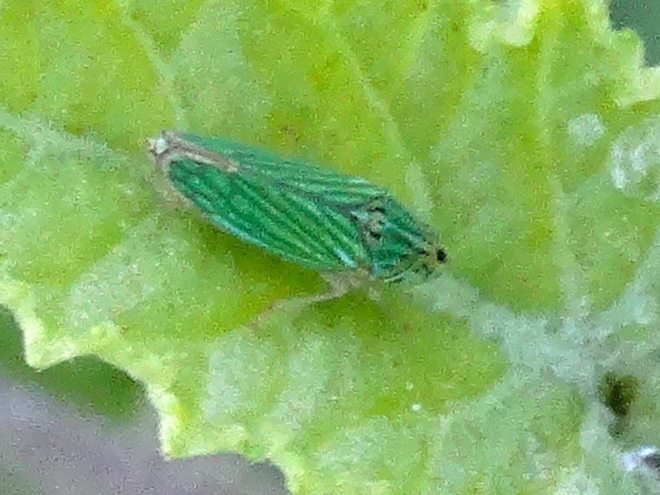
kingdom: Animalia
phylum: Arthropoda
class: Insecta
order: Hemiptera
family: Cicadellidae
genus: Graphocephala
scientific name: Graphocephala cythura
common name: Leafhopper
